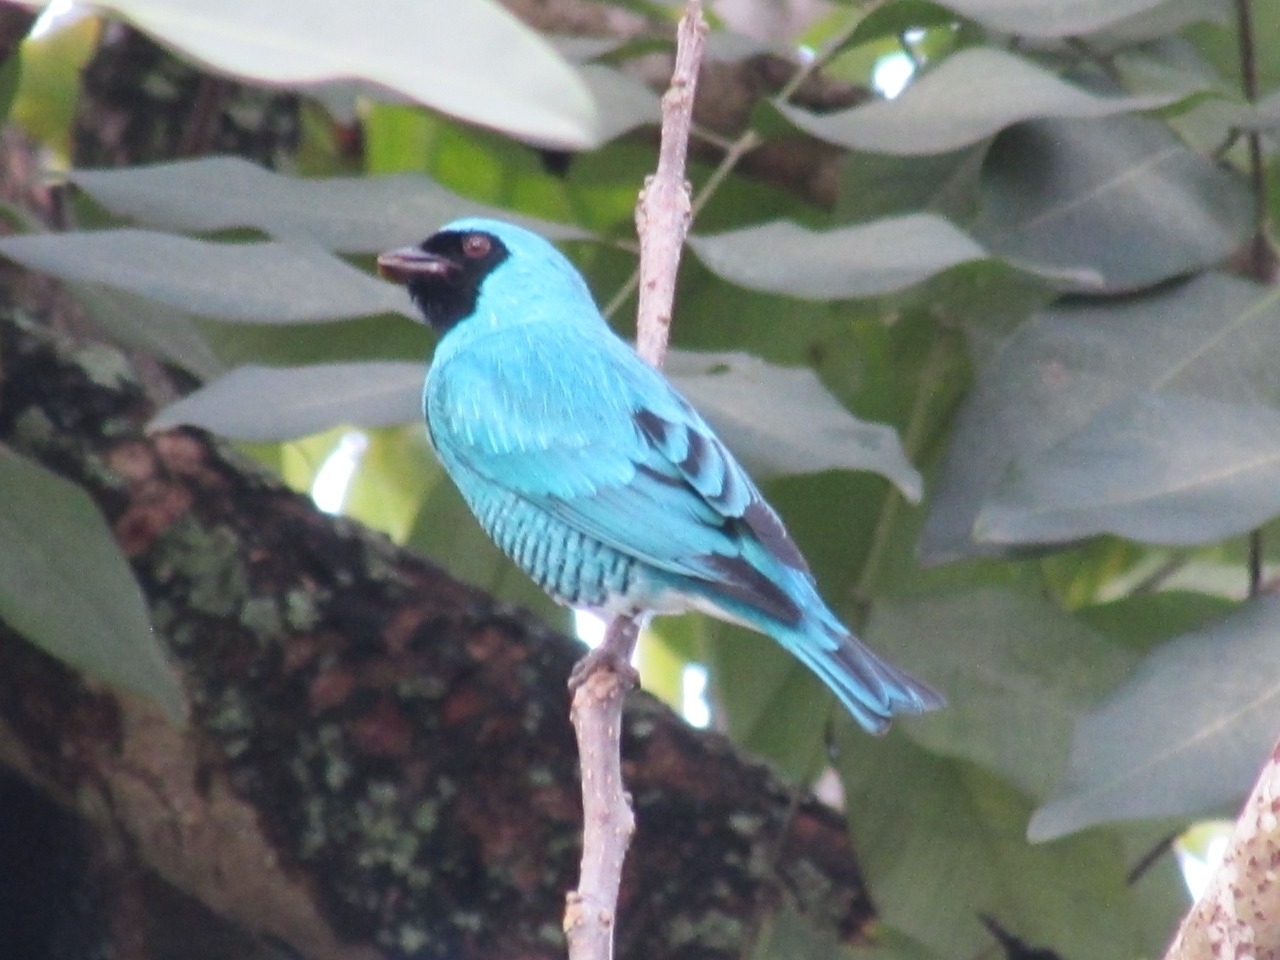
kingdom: Animalia
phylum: Chordata
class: Aves
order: Passeriformes
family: Thraupidae
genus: Tersina
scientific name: Tersina viridis
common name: Swallow tanager
